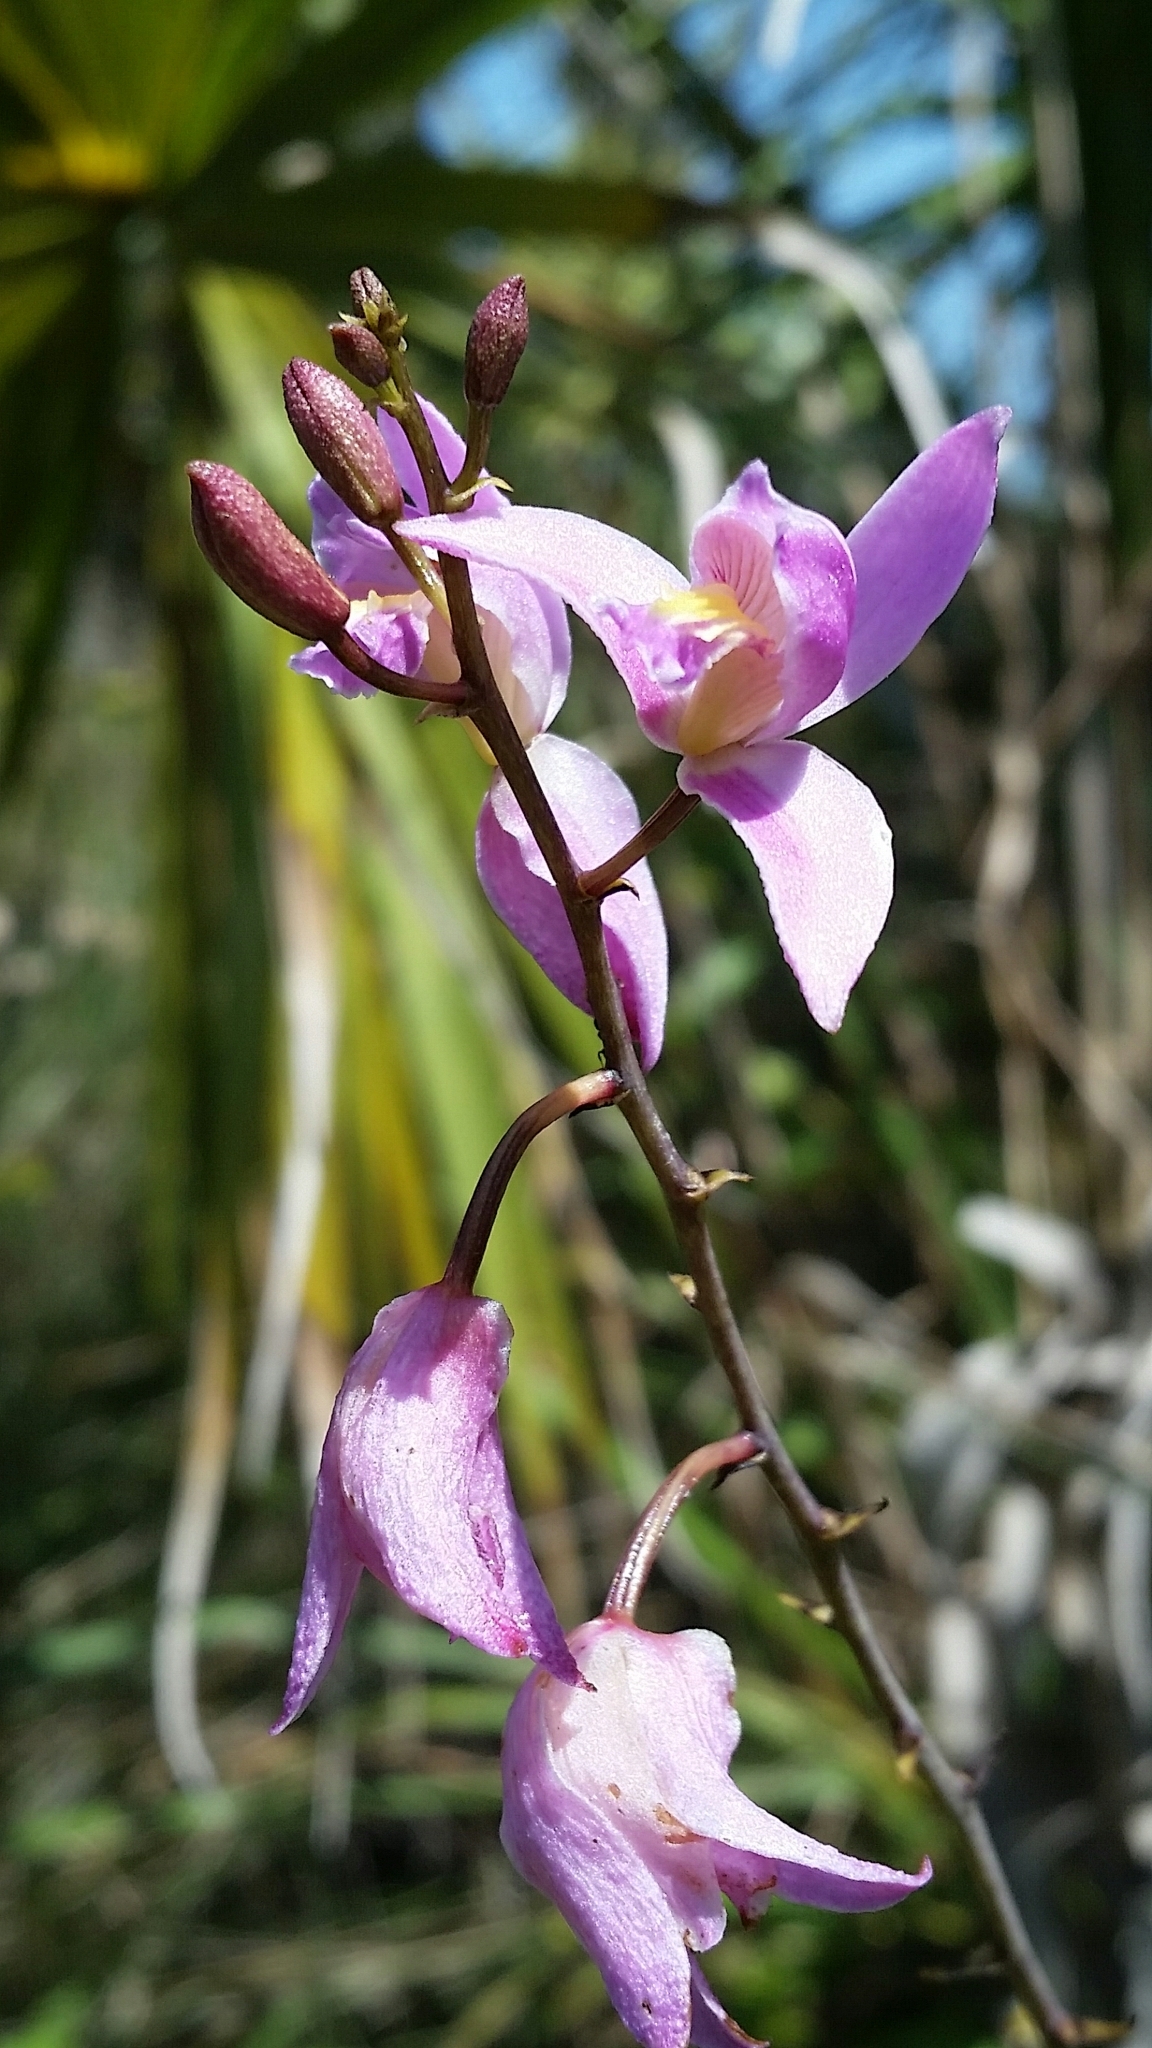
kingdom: Plantae
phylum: Tracheophyta
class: Liliopsida
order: Asparagales
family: Orchidaceae
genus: Bletia
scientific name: Bletia purpurea
